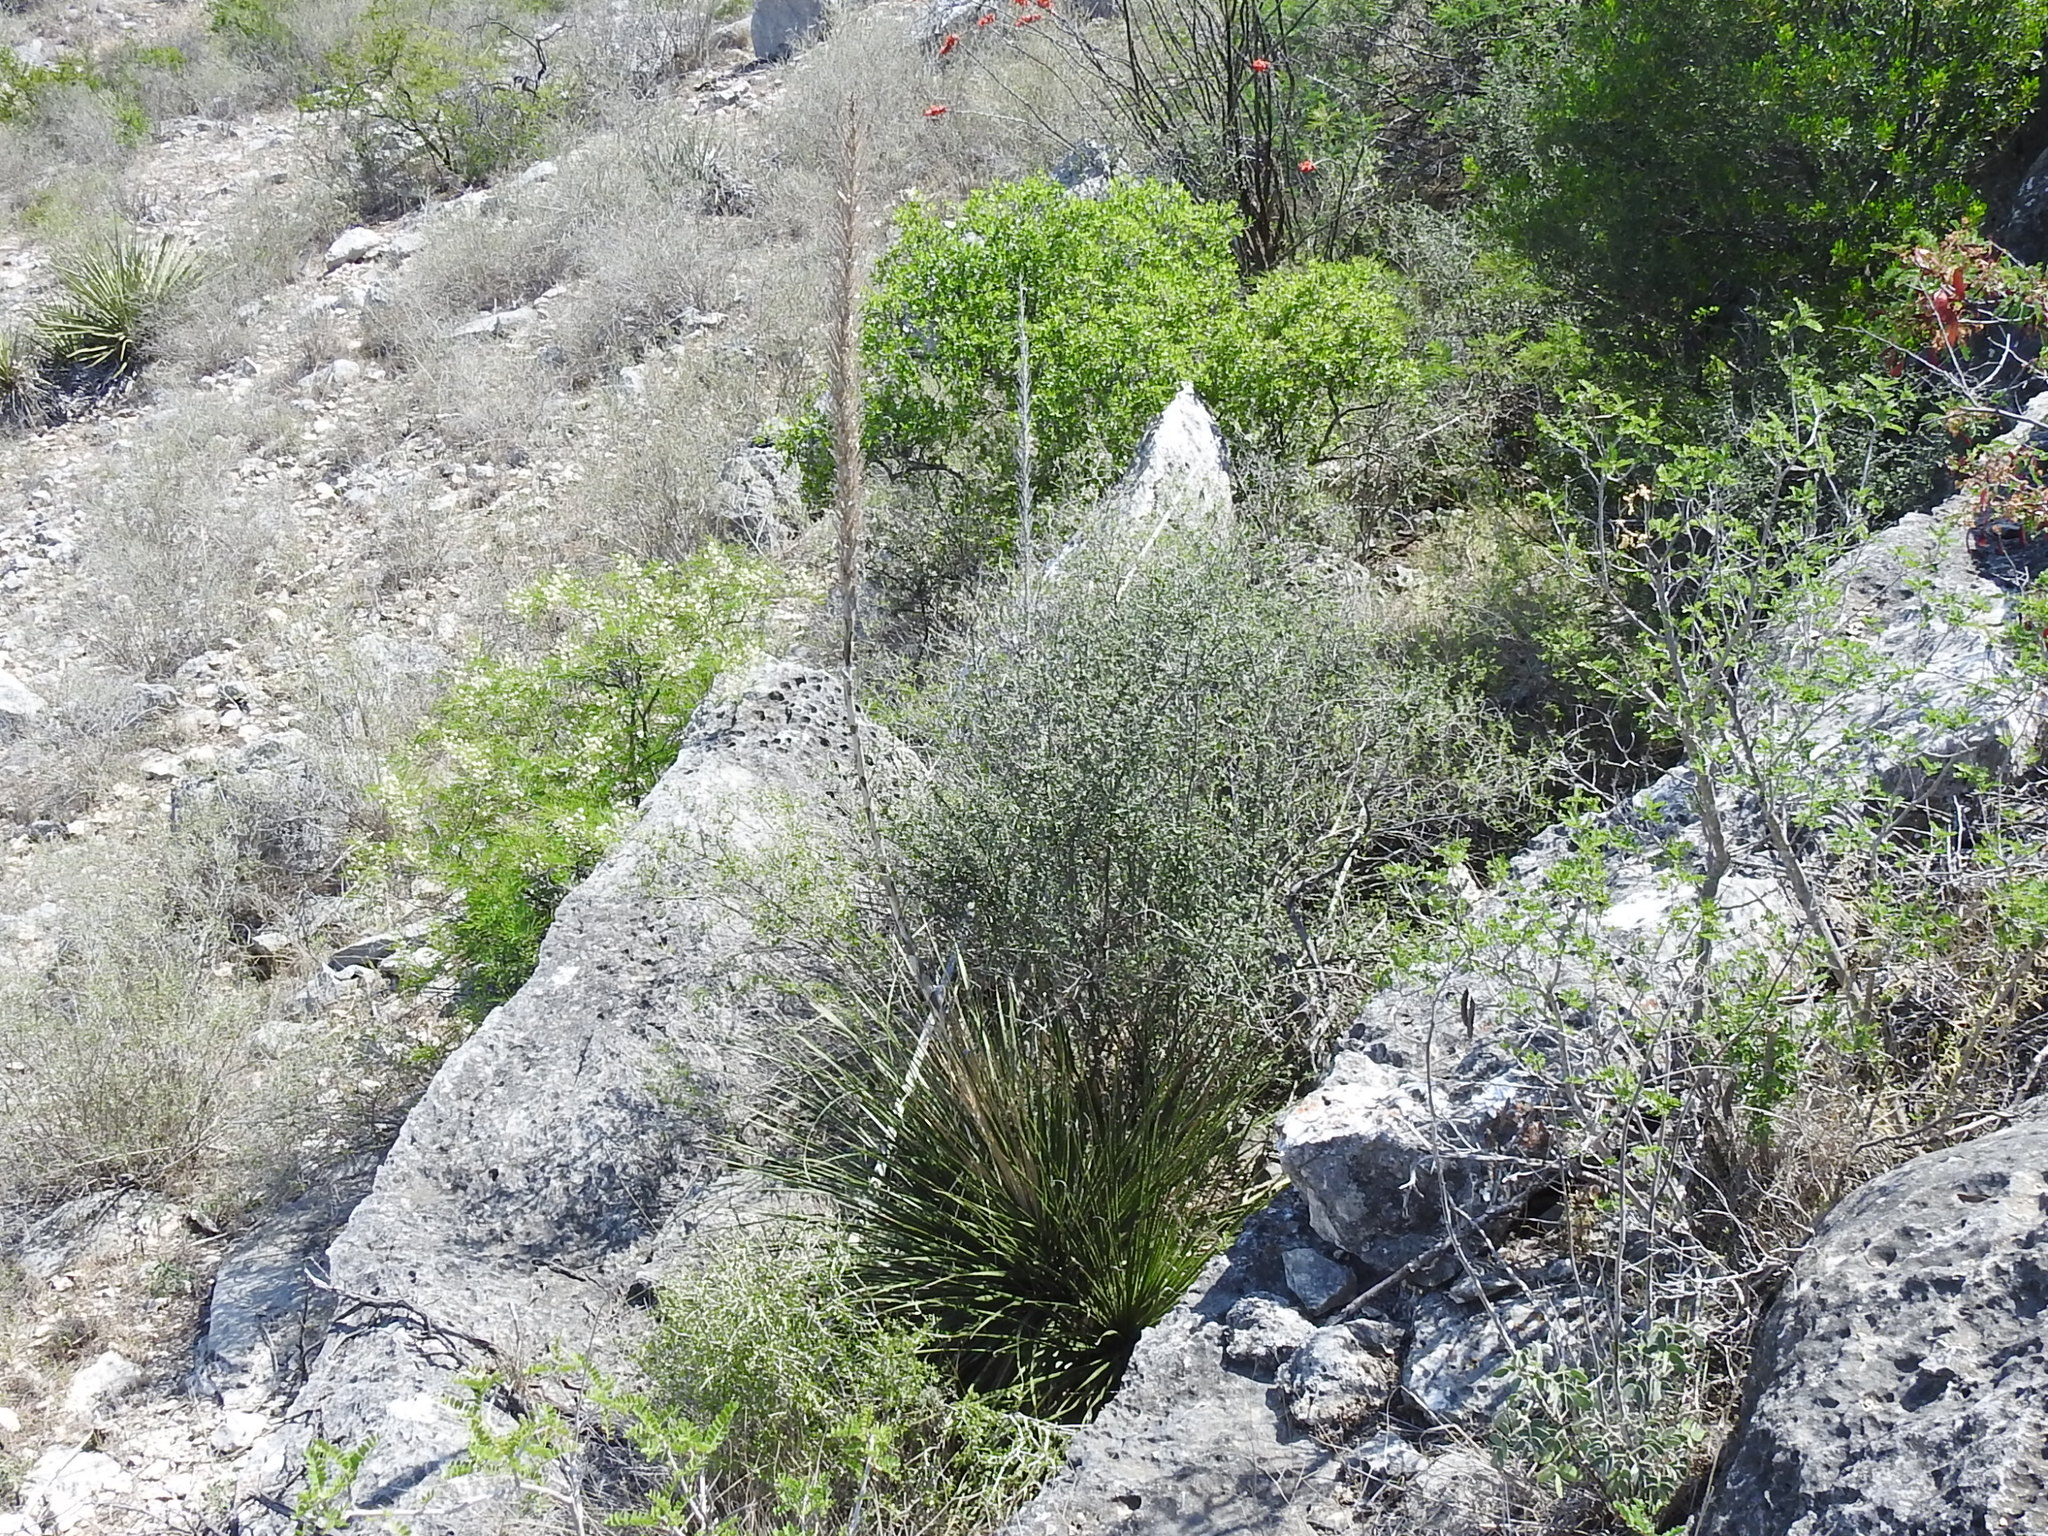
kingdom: Plantae
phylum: Tracheophyta
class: Liliopsida
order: Asparagales
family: Asparagaceae
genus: Dasylirion
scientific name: Dasylirion texanum
